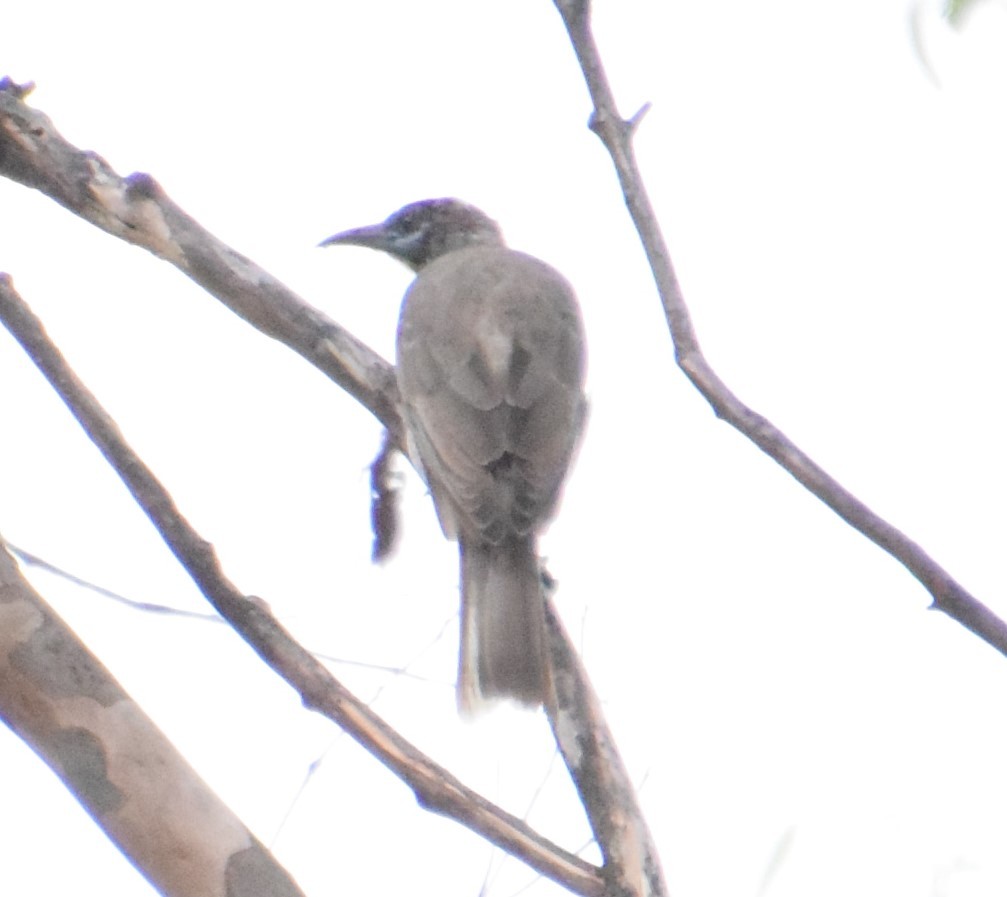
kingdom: Animalia
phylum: Chordata
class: Aves
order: Passeriformes
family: Meliphagidae
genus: Philemon
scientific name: Philemon citreogularis
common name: Little friarbird
